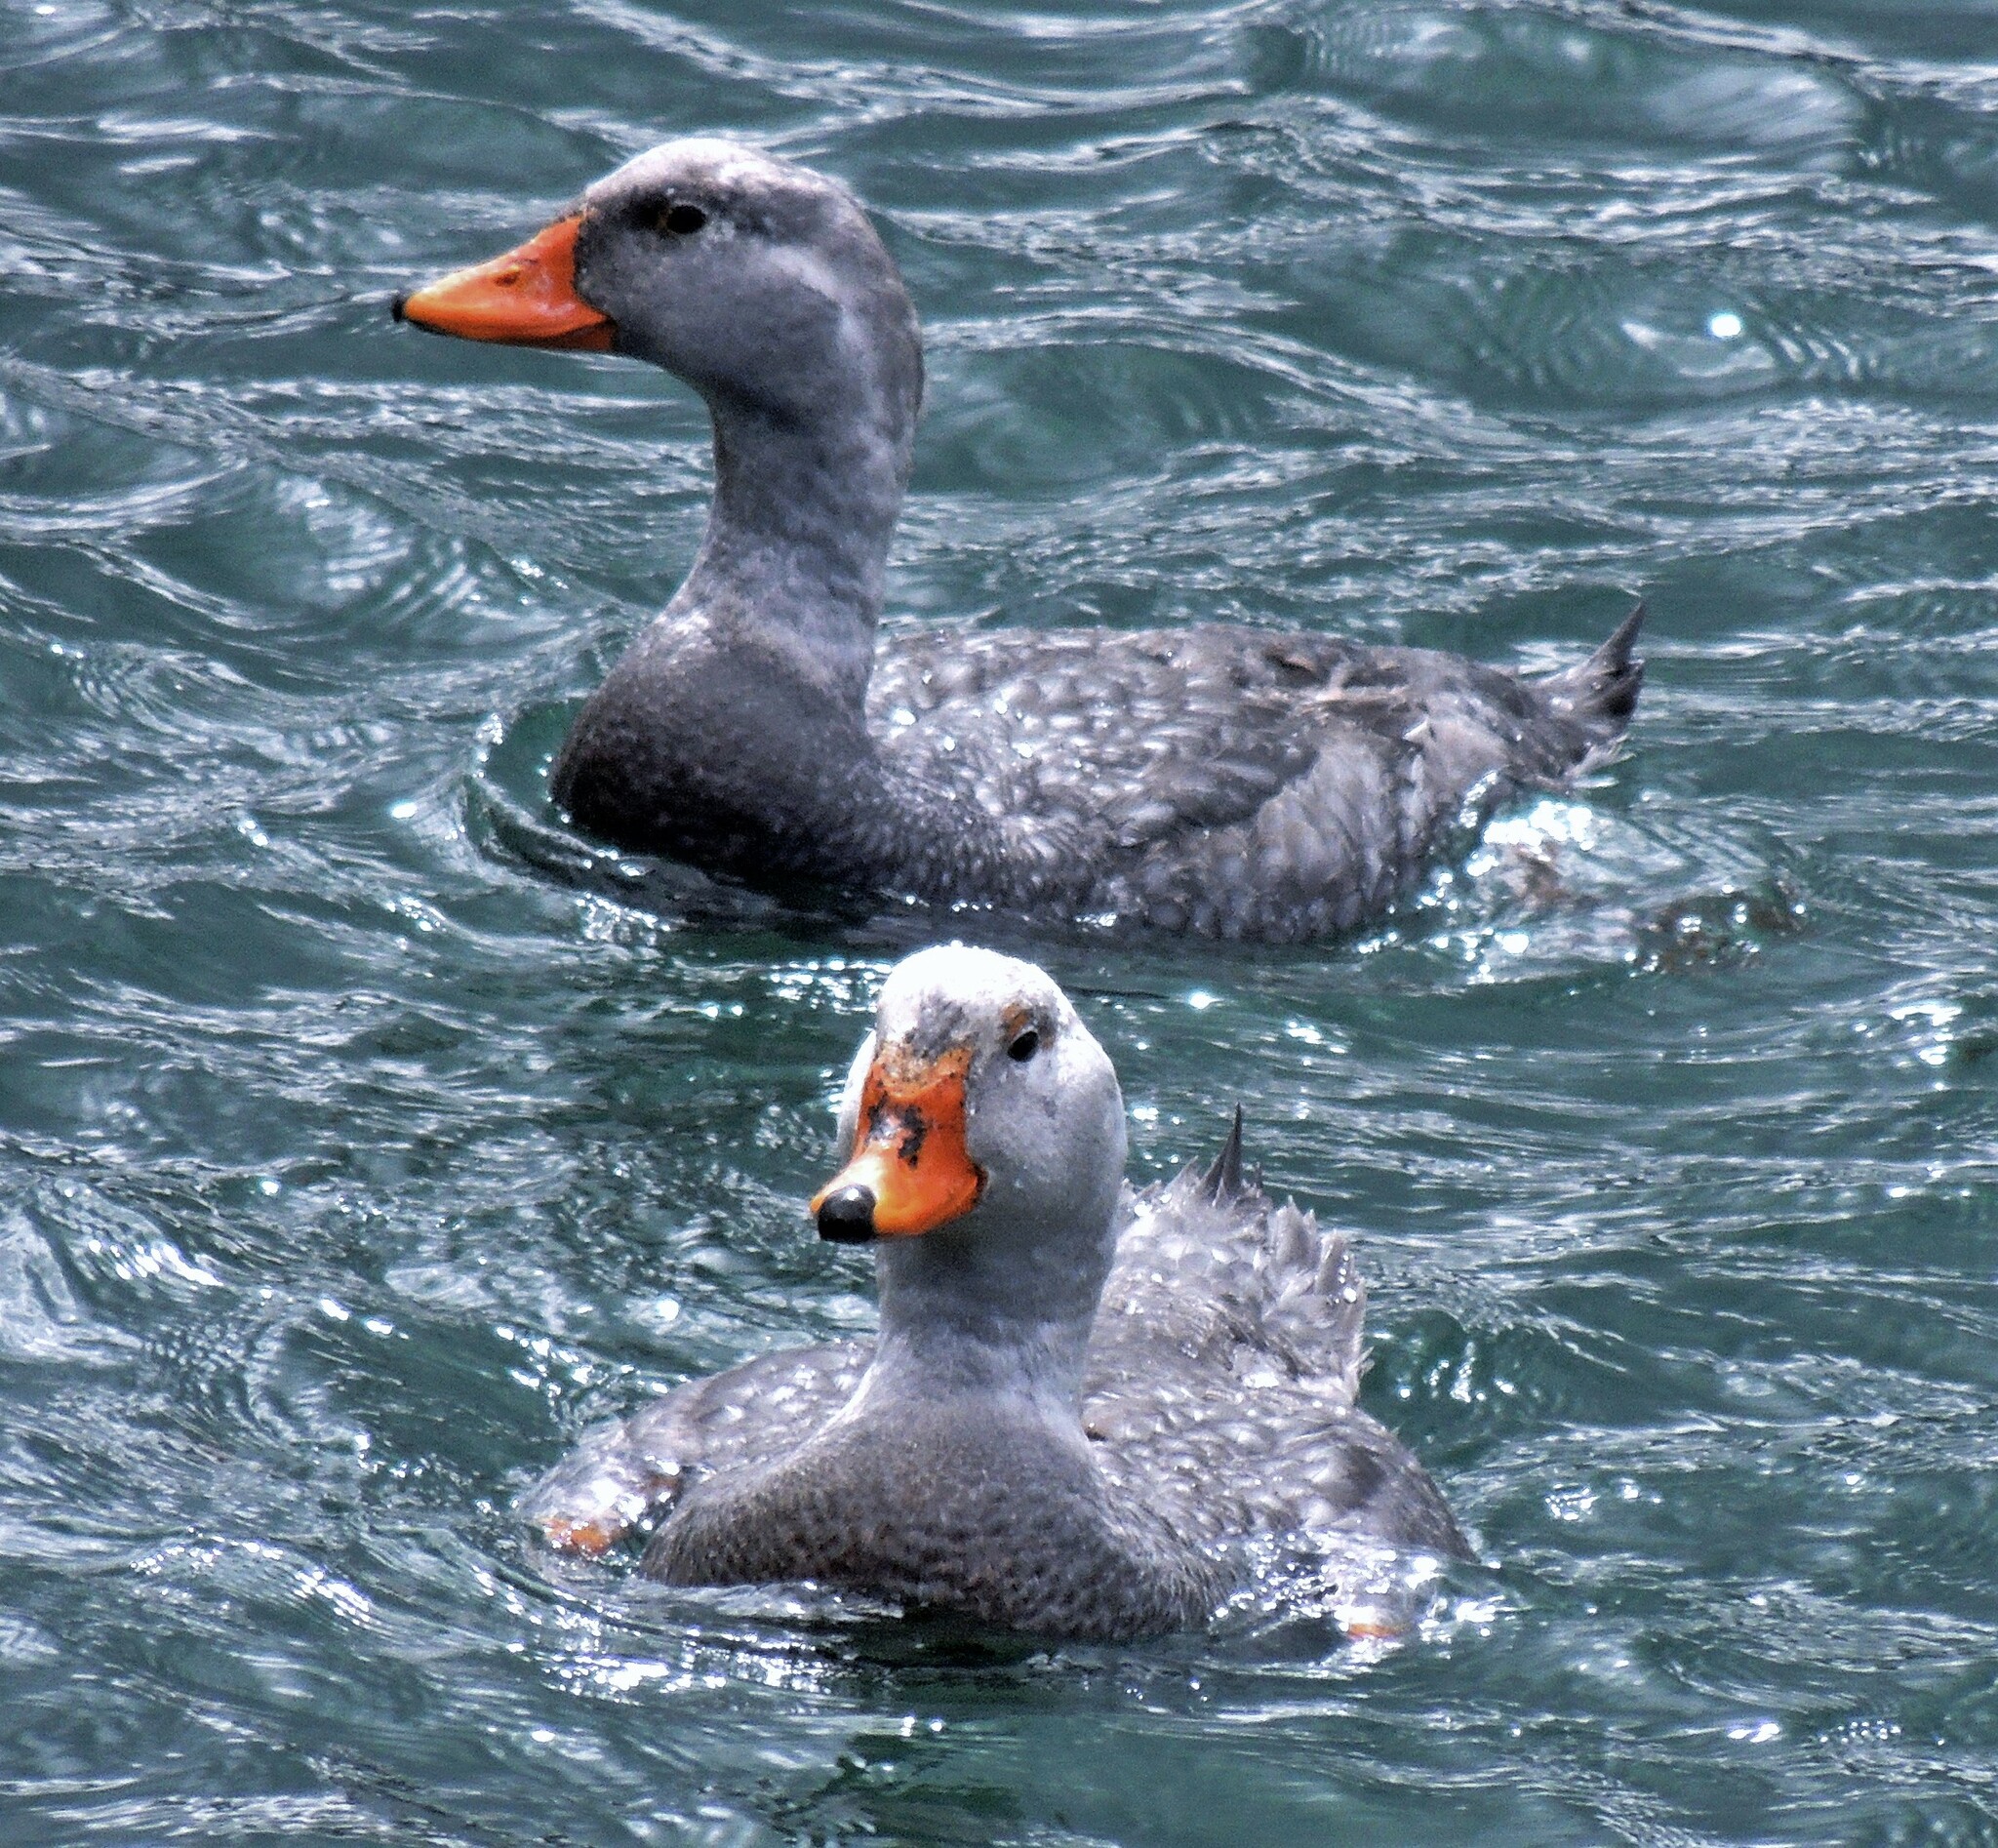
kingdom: Animalia
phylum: Chordata
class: Aves
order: Anseriformes
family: Anatidae
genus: Tachyeres
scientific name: Tachyeres pteneres
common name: Fuegian steamer duck
